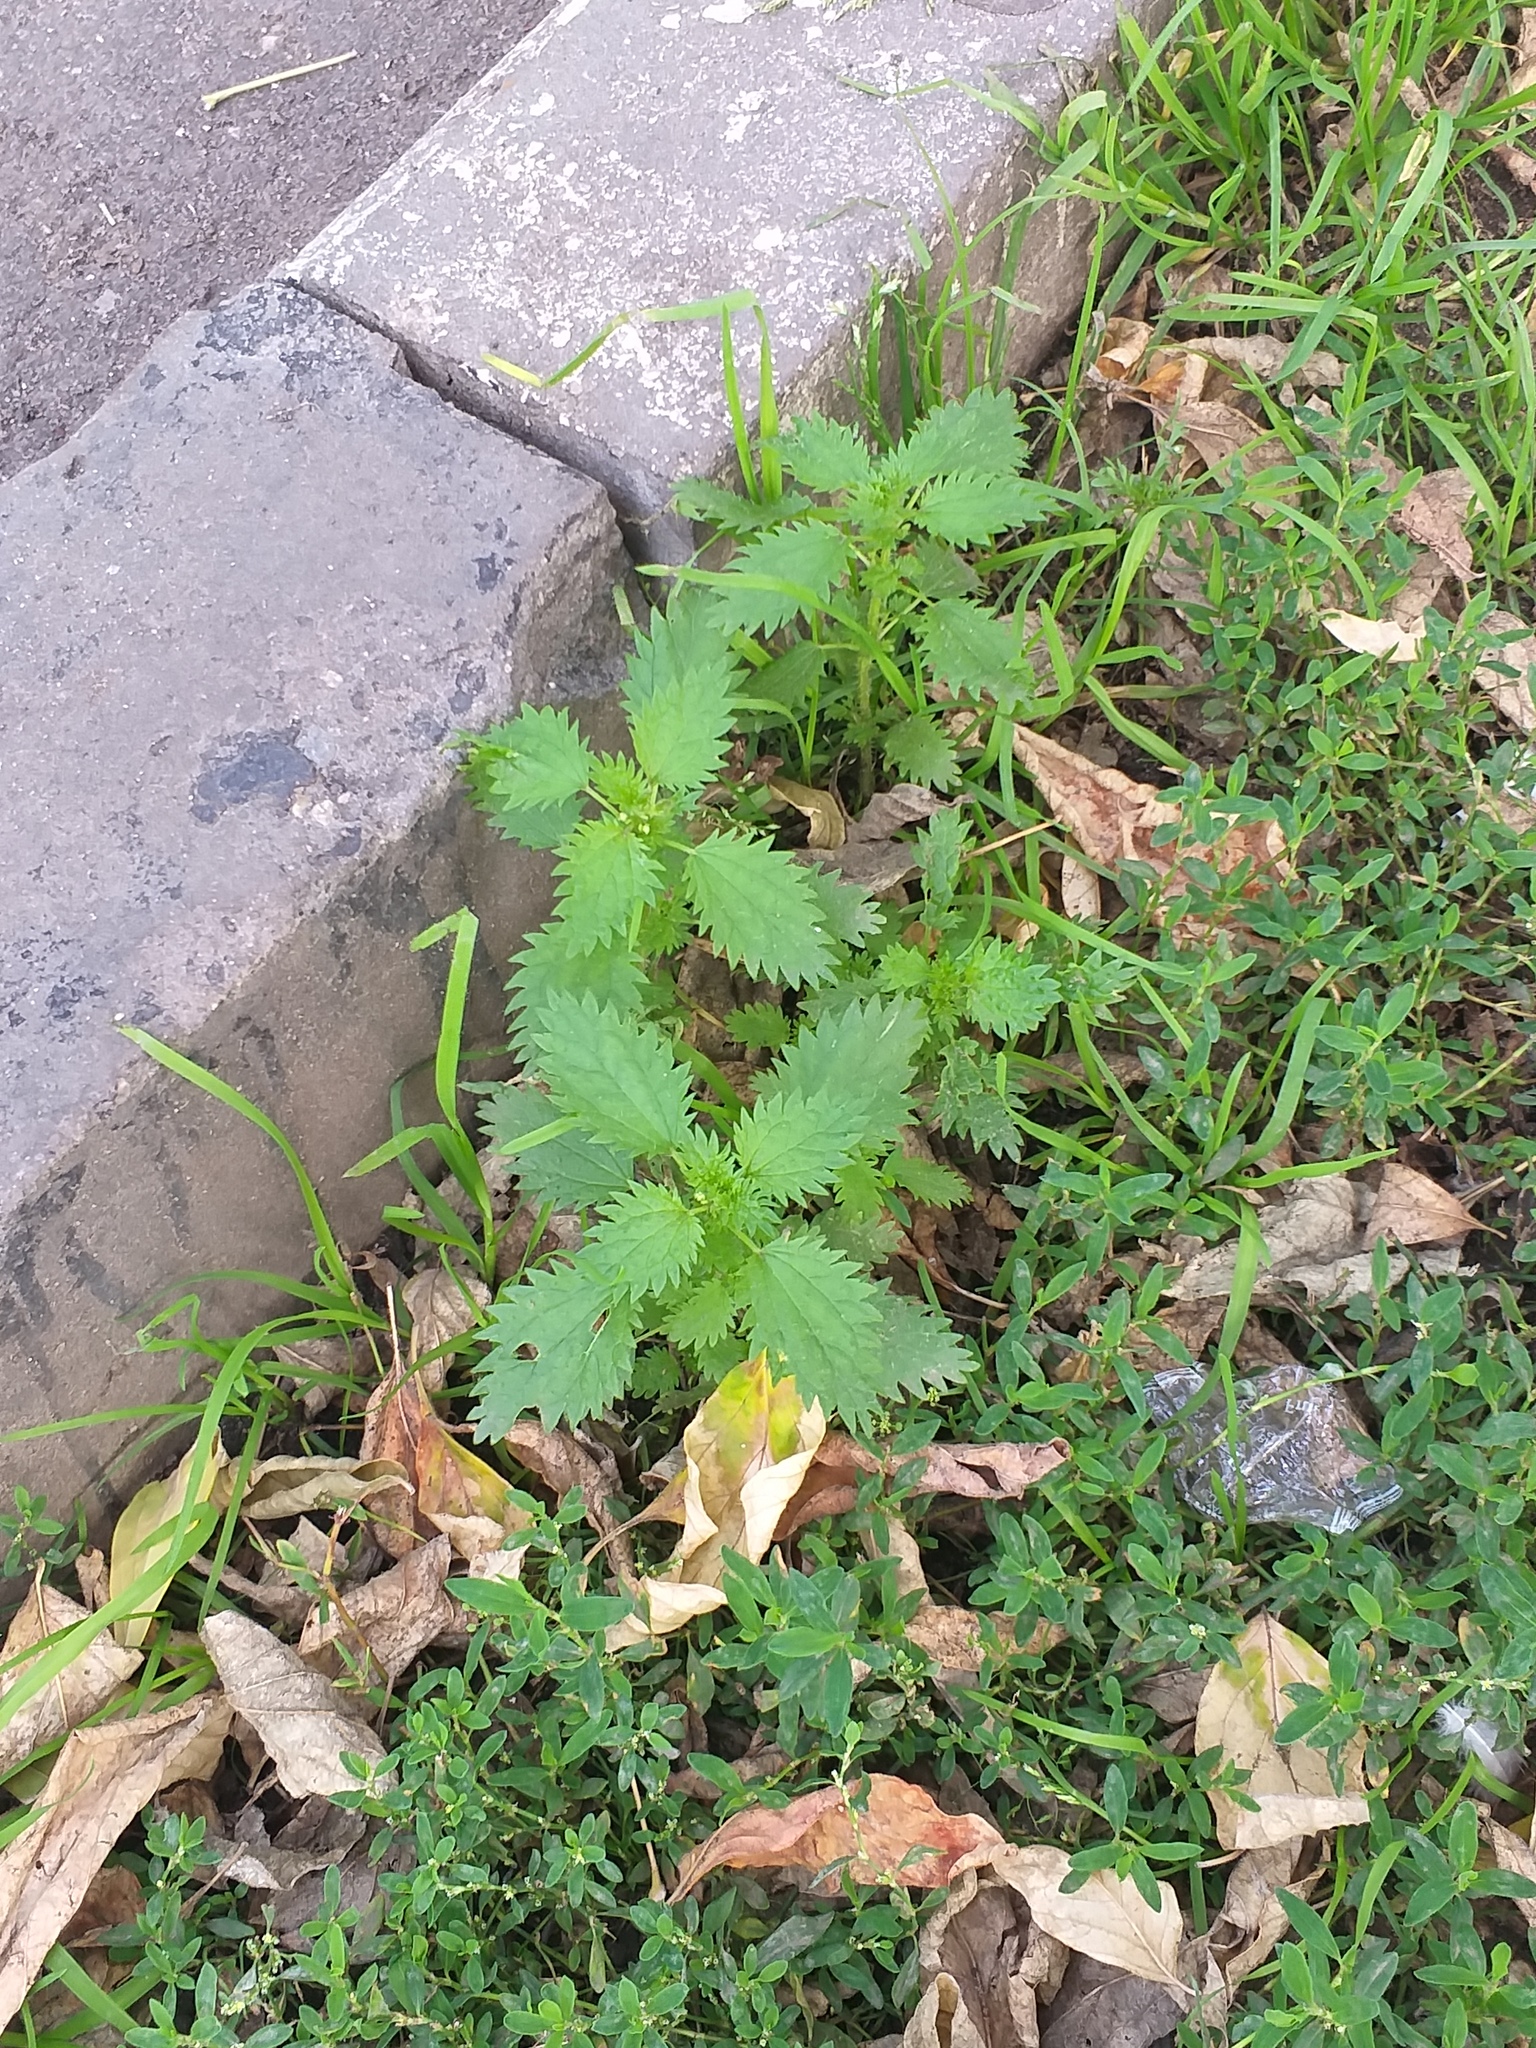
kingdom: Plantae
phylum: Tracheophyta
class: Magnoliopsida
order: Rosales
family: Urticaceae
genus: Urtica
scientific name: Urtica urens
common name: Dwarf nettle
